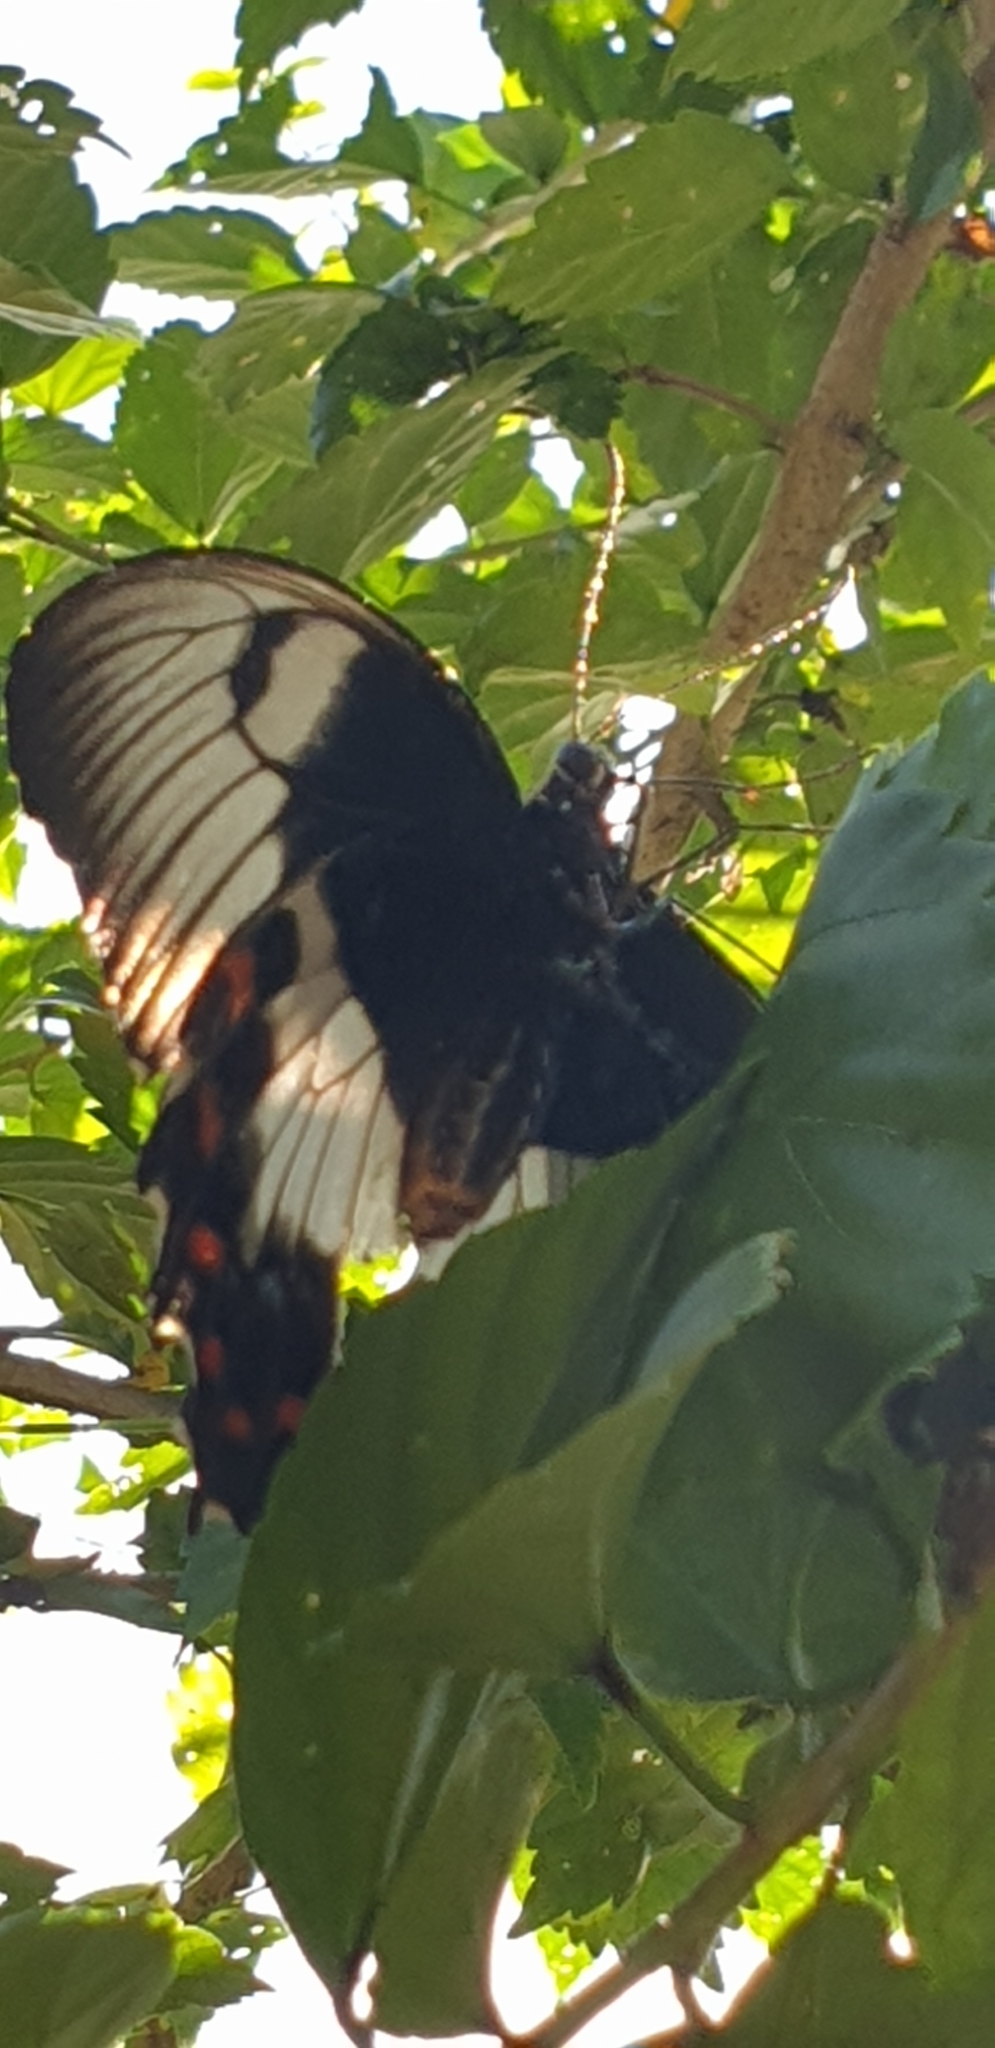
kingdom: Animalia
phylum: Arthropoda
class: Insecta
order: Lepidoptera
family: Papilionidae
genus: Papilio
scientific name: Papilio aegeus
